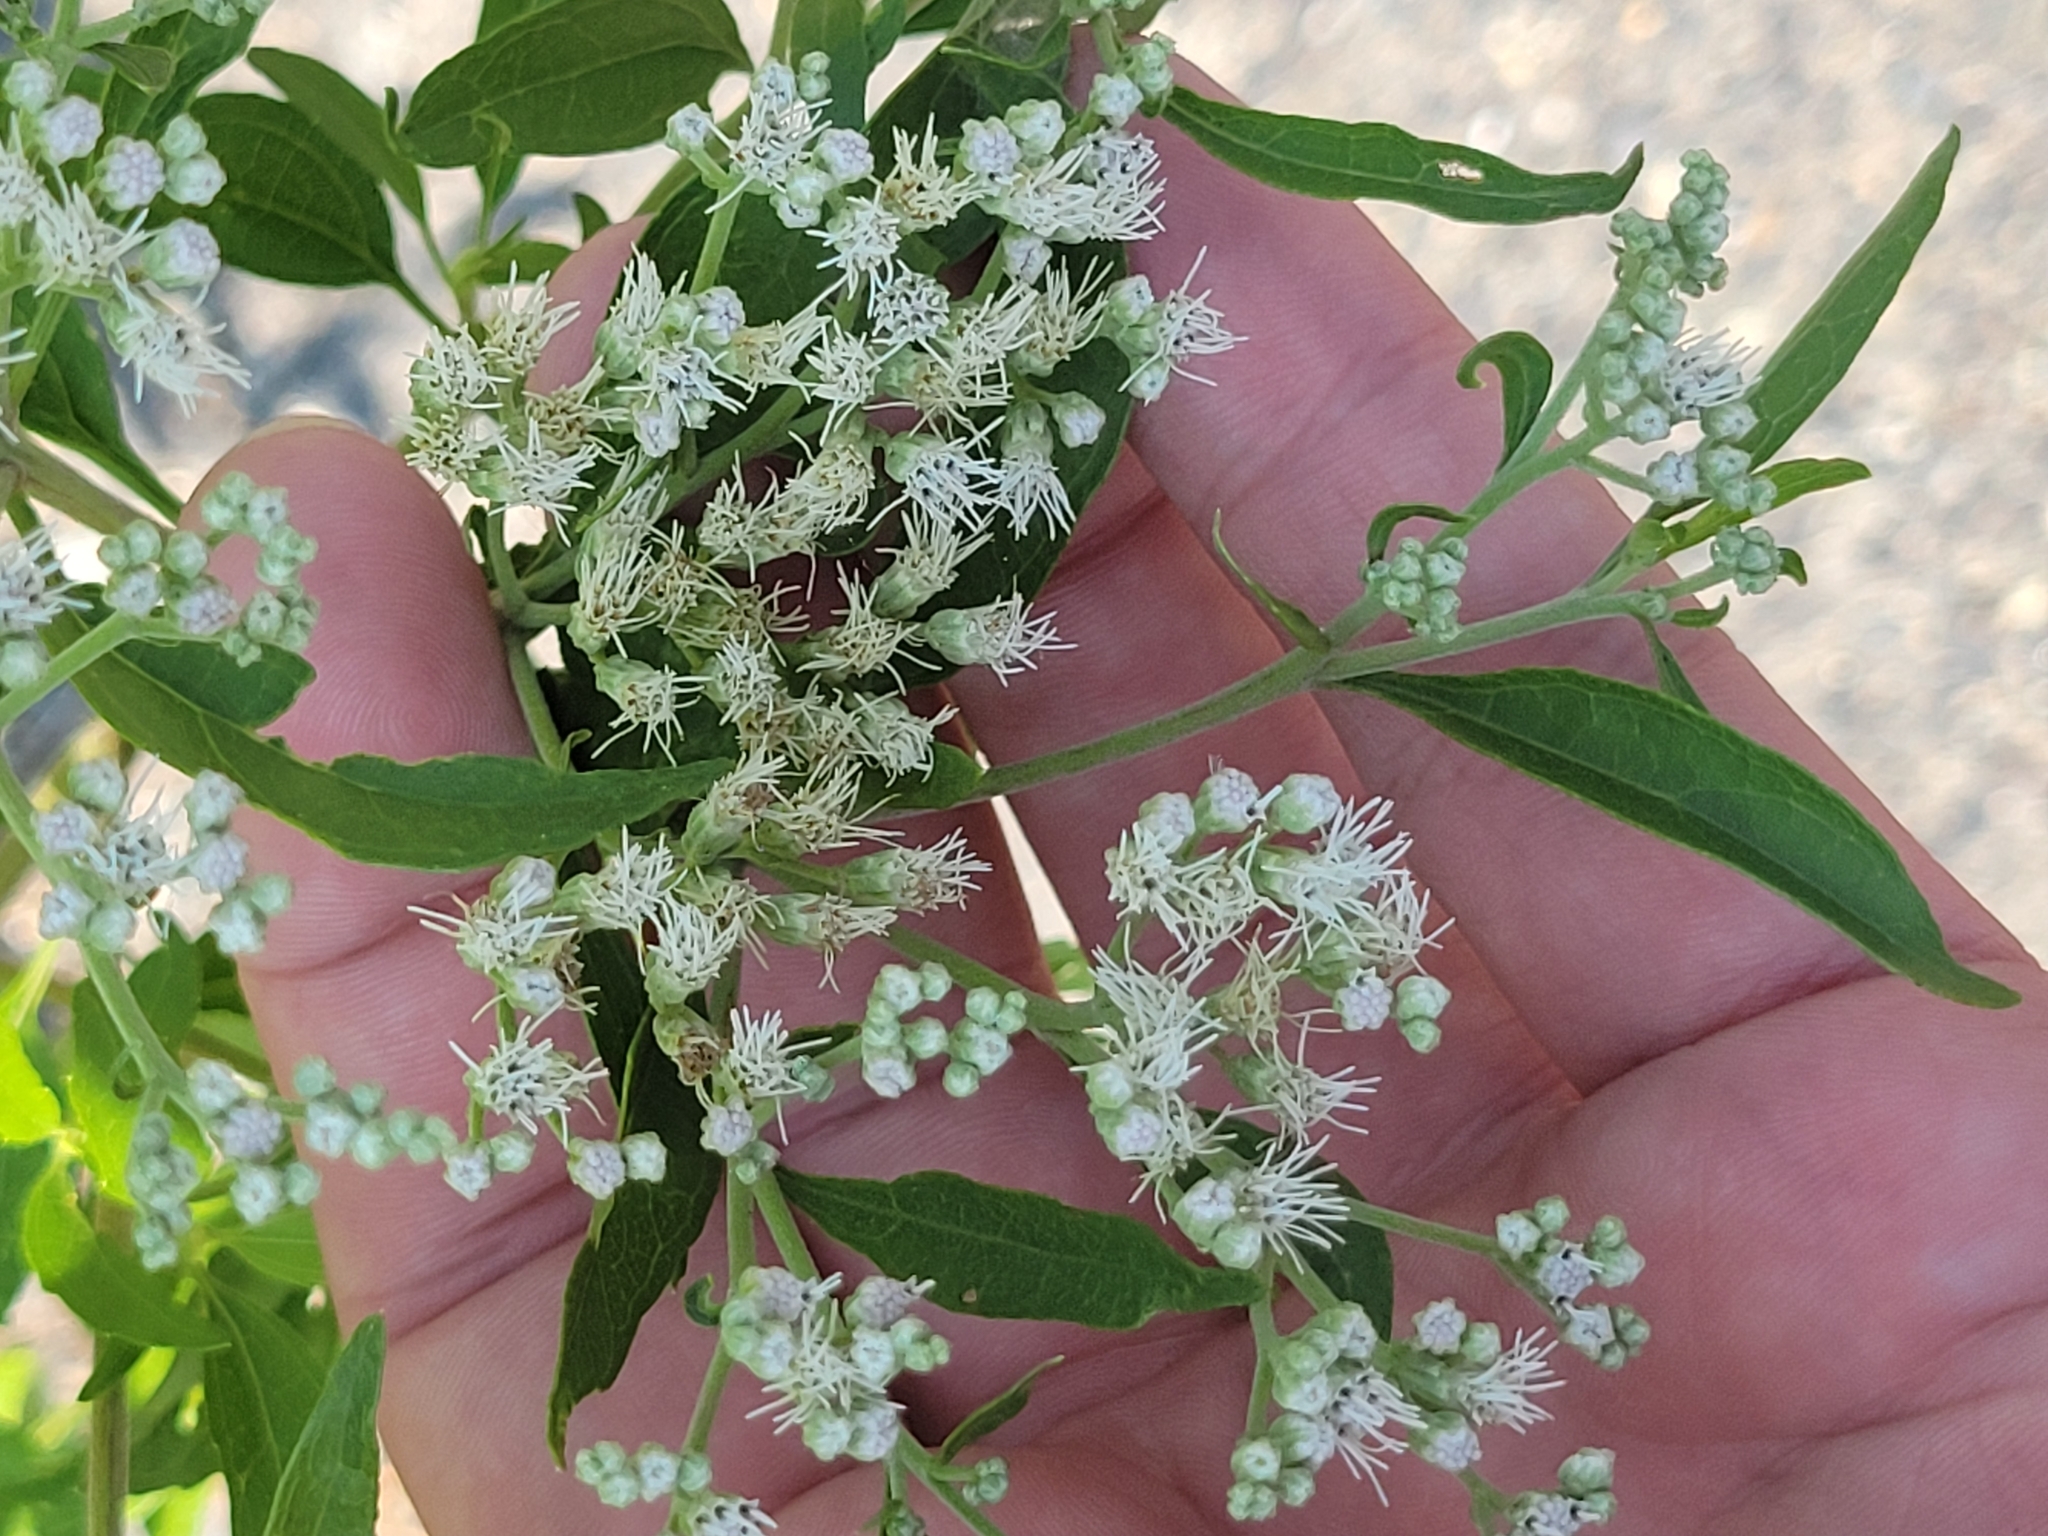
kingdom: Plantae
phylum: Tracheophyta
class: Magnoliopsida
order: Asterales
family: Asteraceae
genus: Eupatorium
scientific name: Eupatorium serotinum
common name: Late boneset
